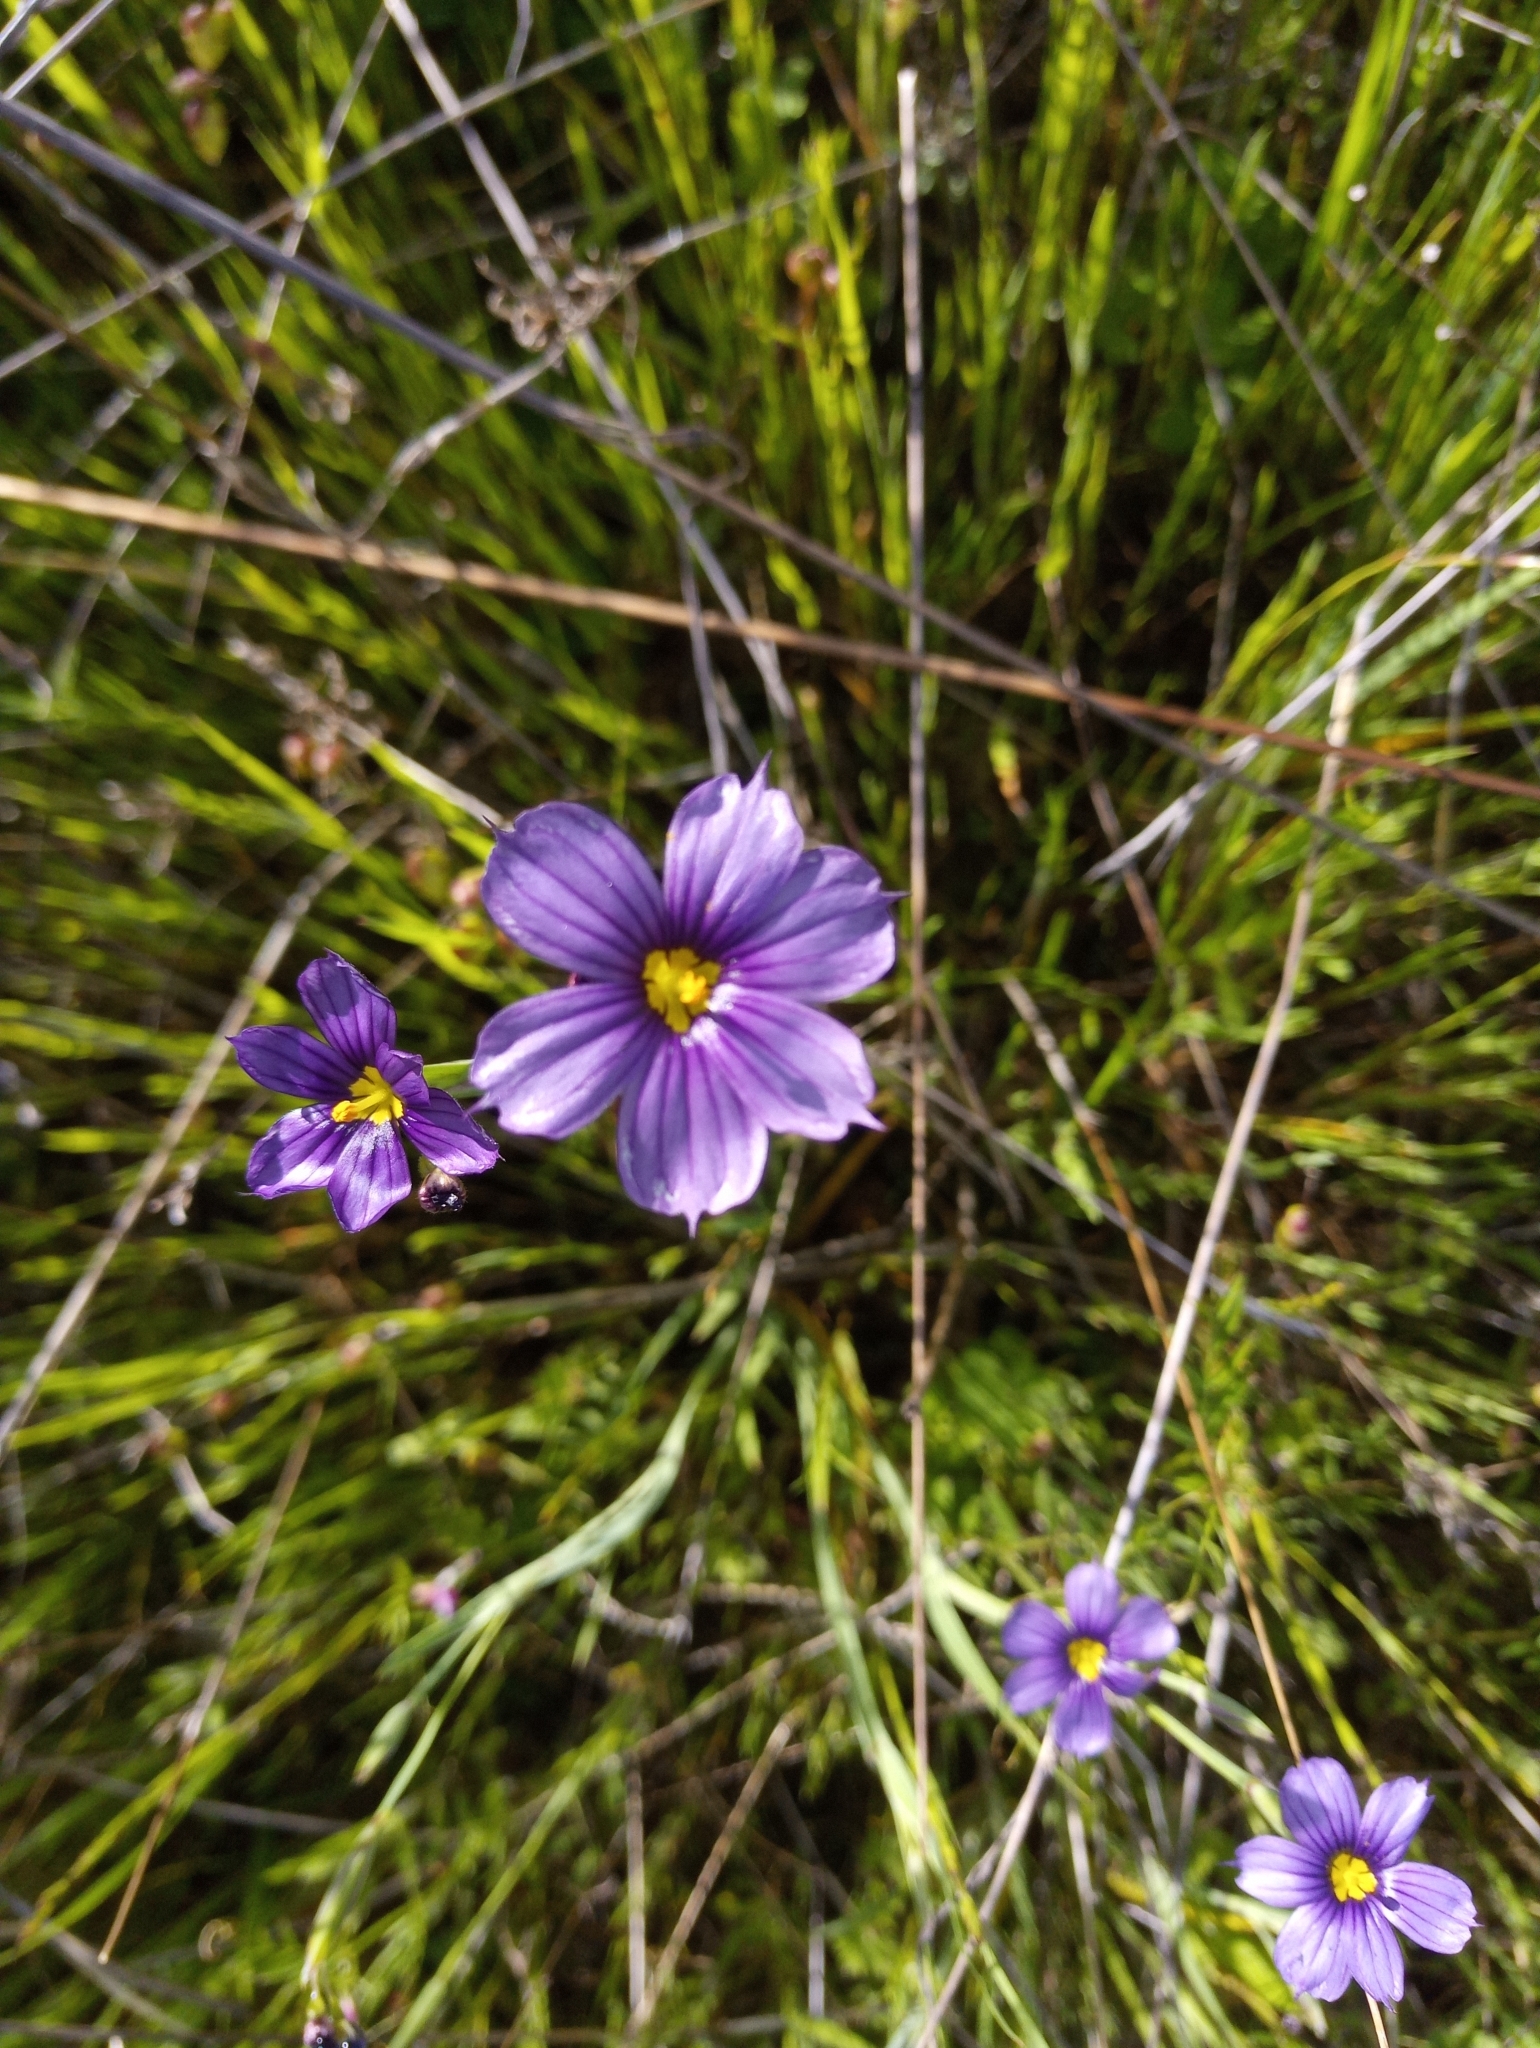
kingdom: Plantae
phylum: Tracheophyta
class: Liliopsida
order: Asparagales
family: Iridaceae
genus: Sisyrinchium
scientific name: Sisyrinchium bellum
